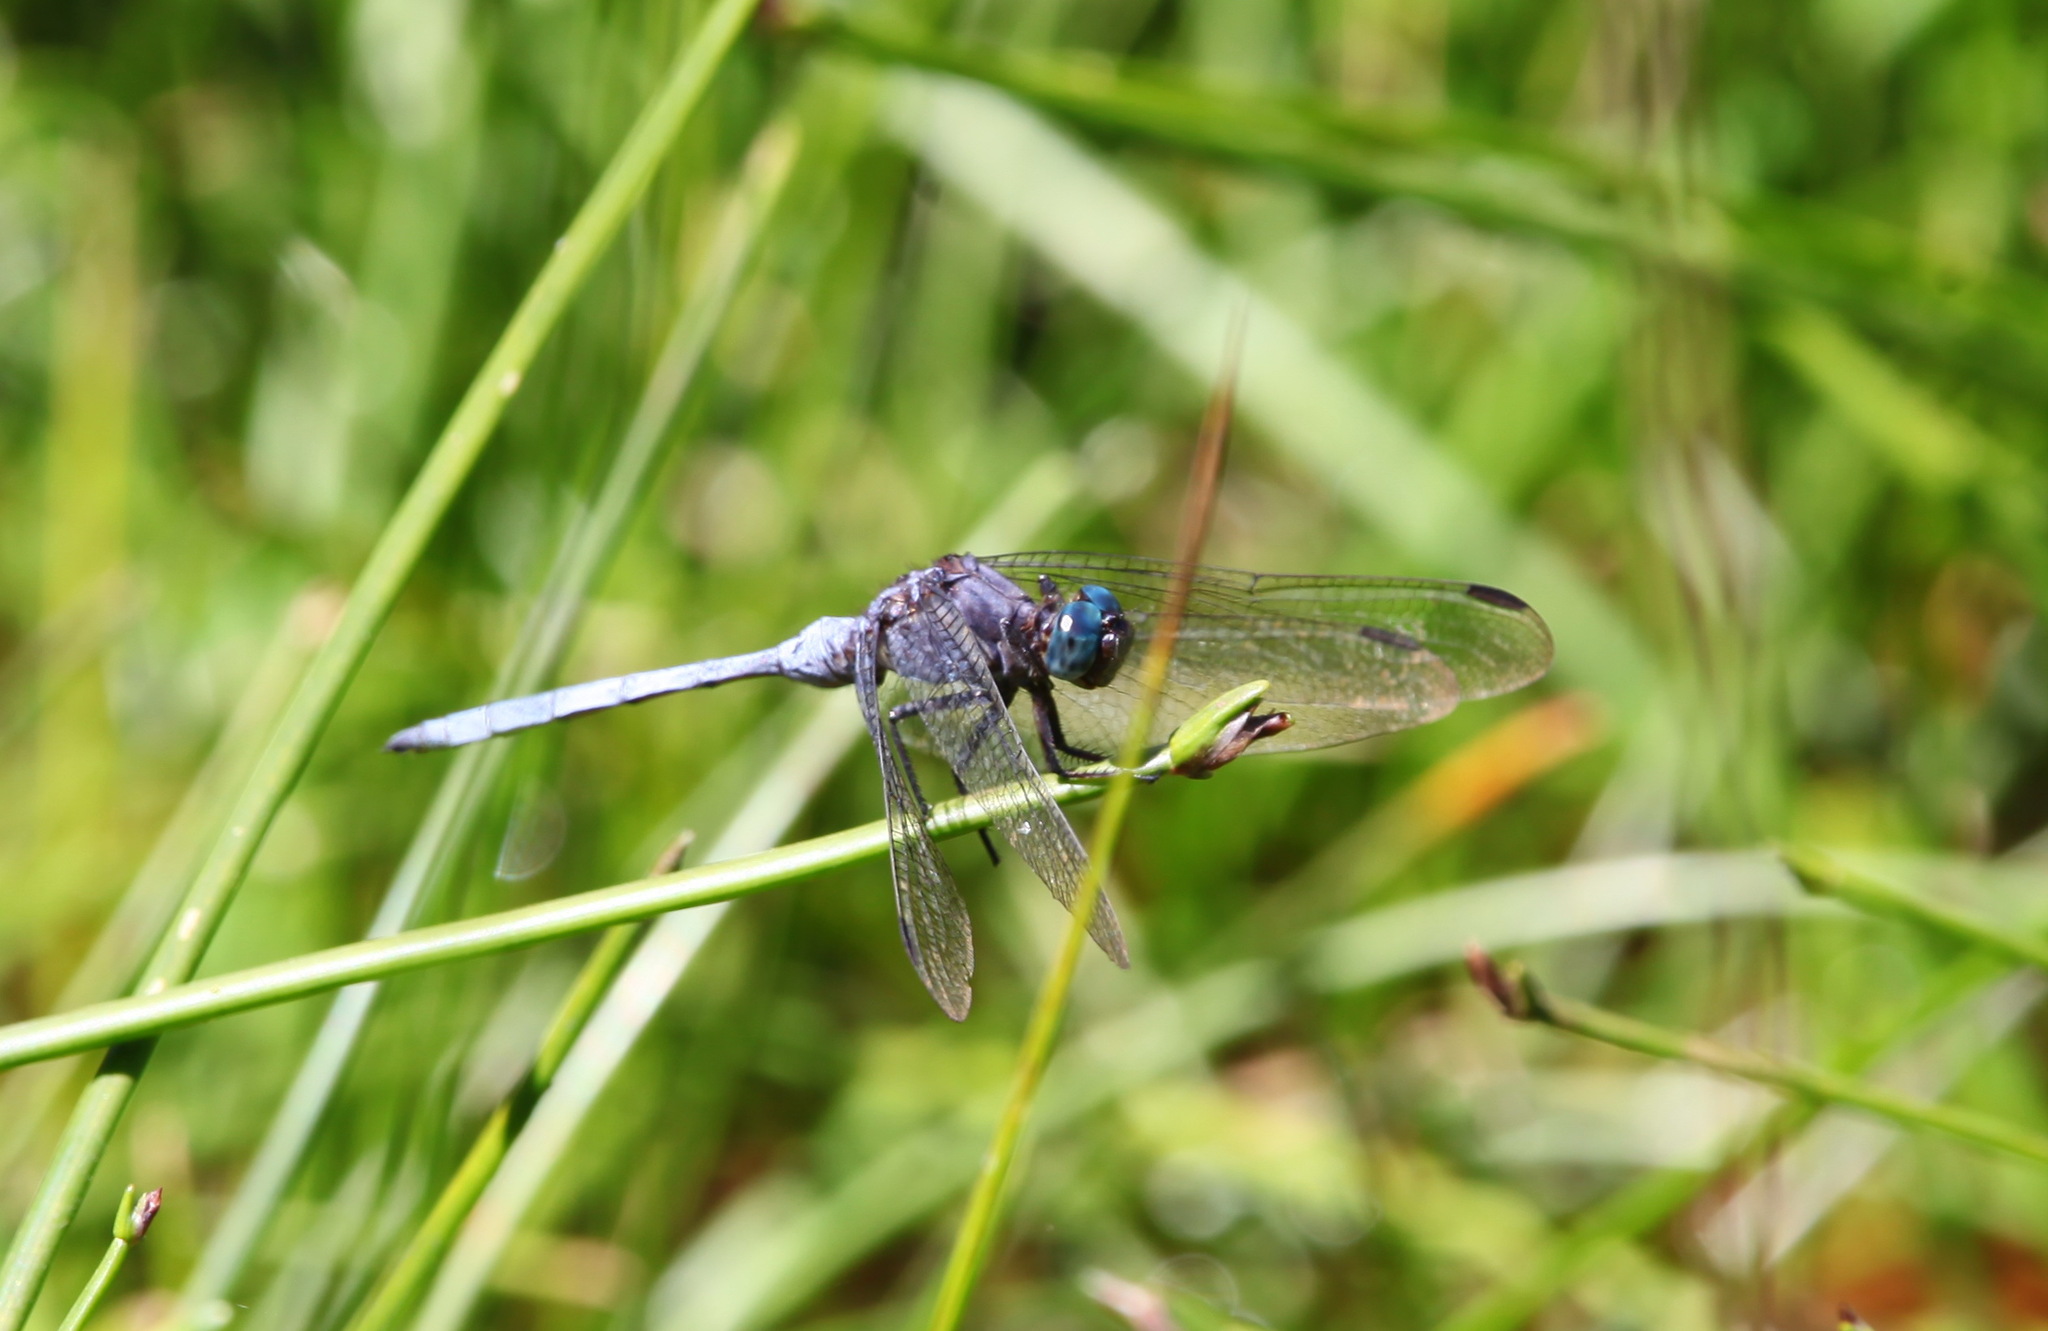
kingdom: Animalia
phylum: Arthropoda
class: Insecta
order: Odonata
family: Libellulidae
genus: Orthetrum
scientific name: Orthetrum julia
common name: Julia skimmer
